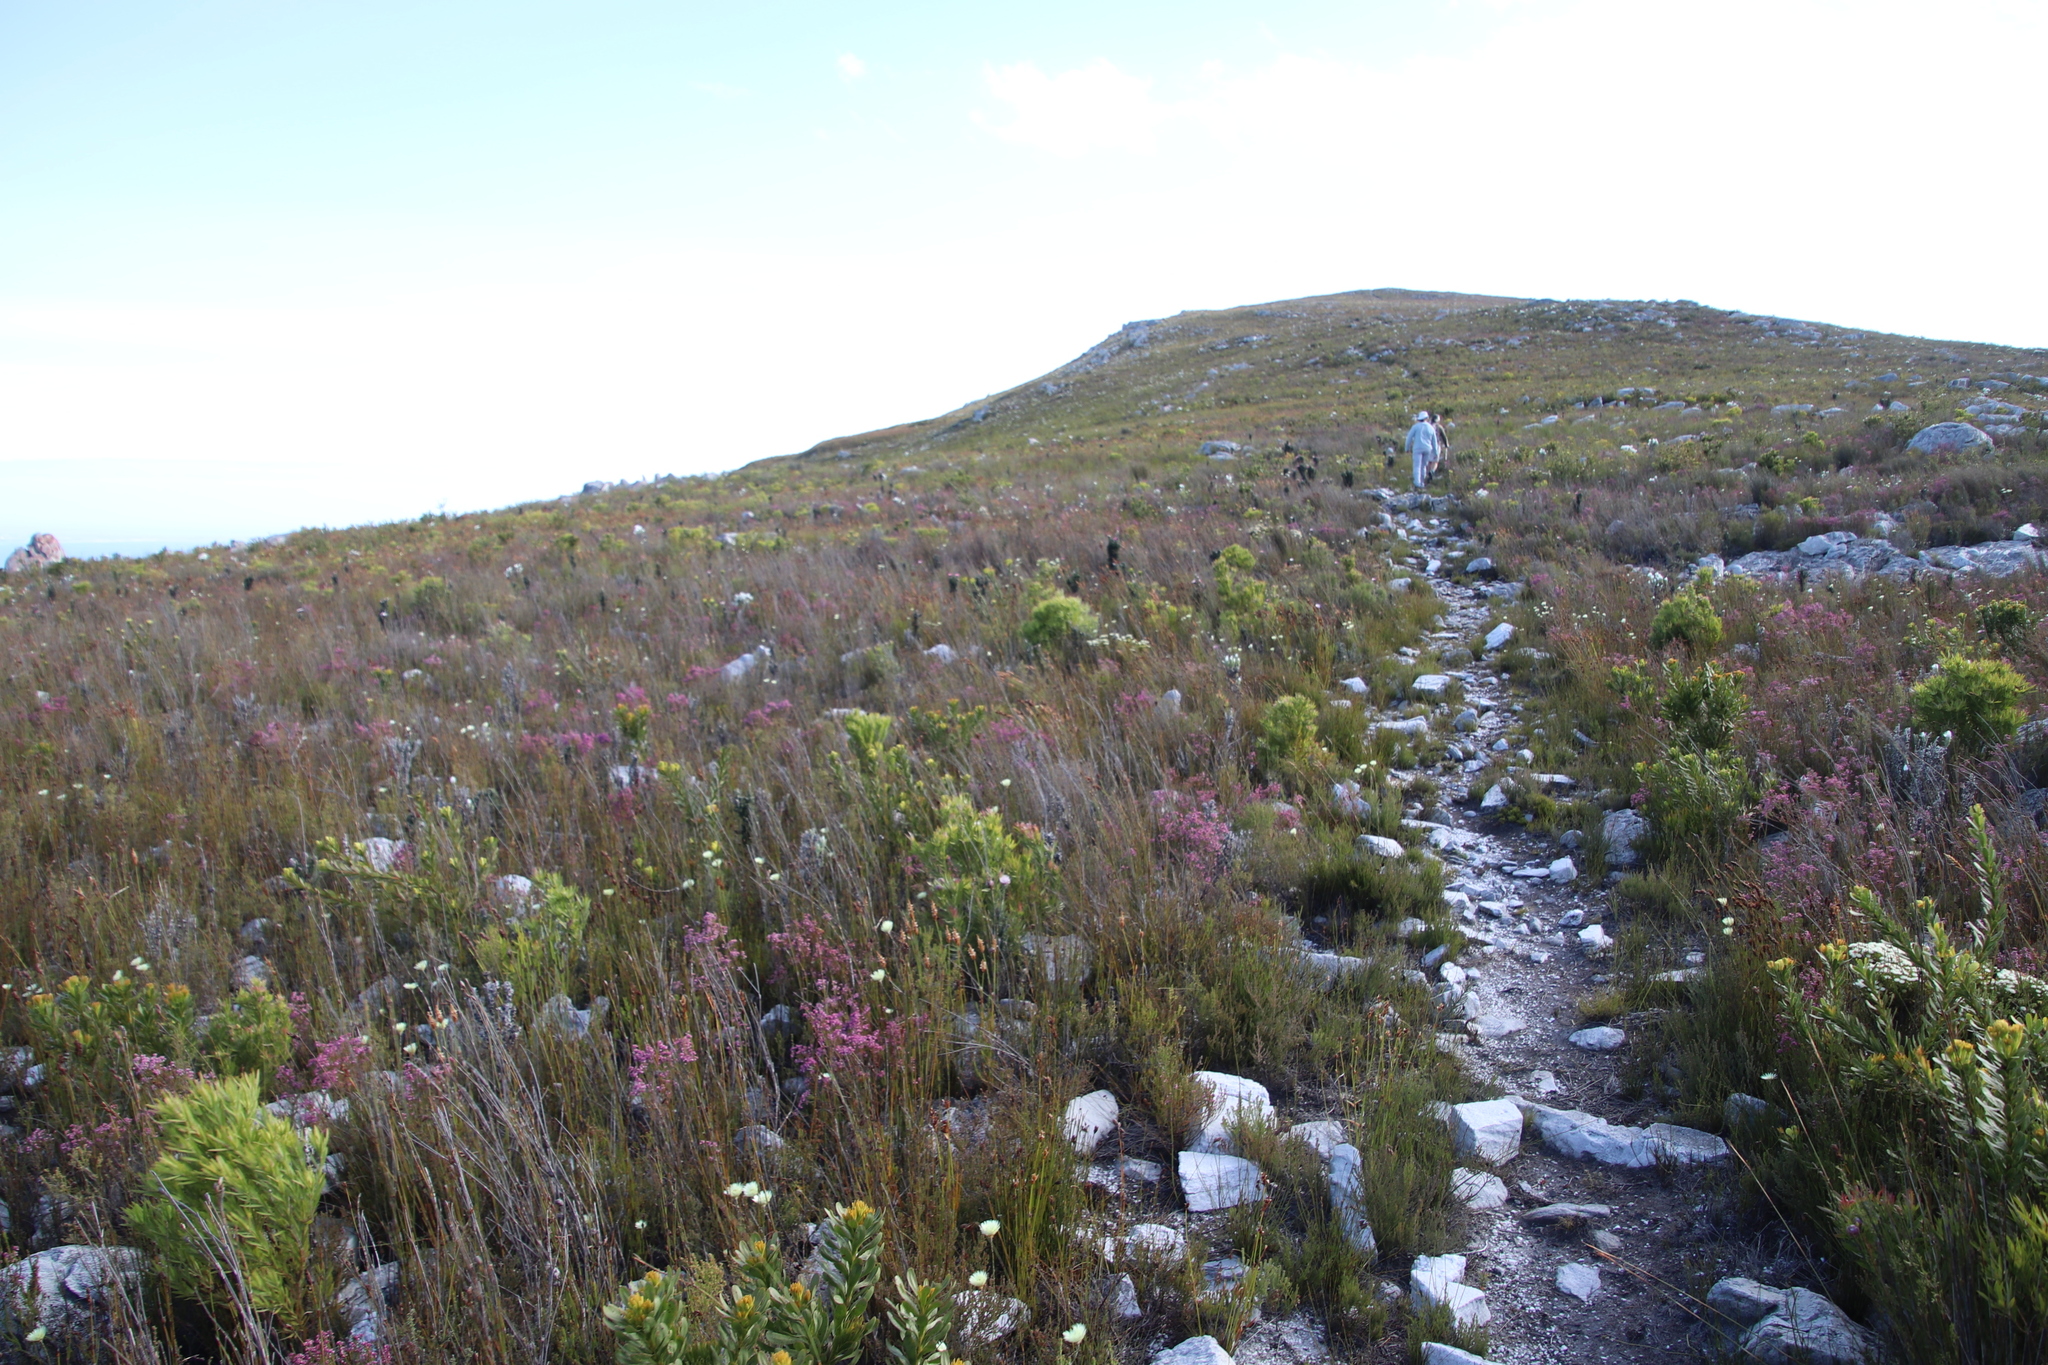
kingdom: Plantae
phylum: Tracheophyta
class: Magnoliopsida
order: Proteales
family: Proteaceae
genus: Leucadendron
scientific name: Leucadendron xanthoconus
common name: Sickle-leaf conebush
